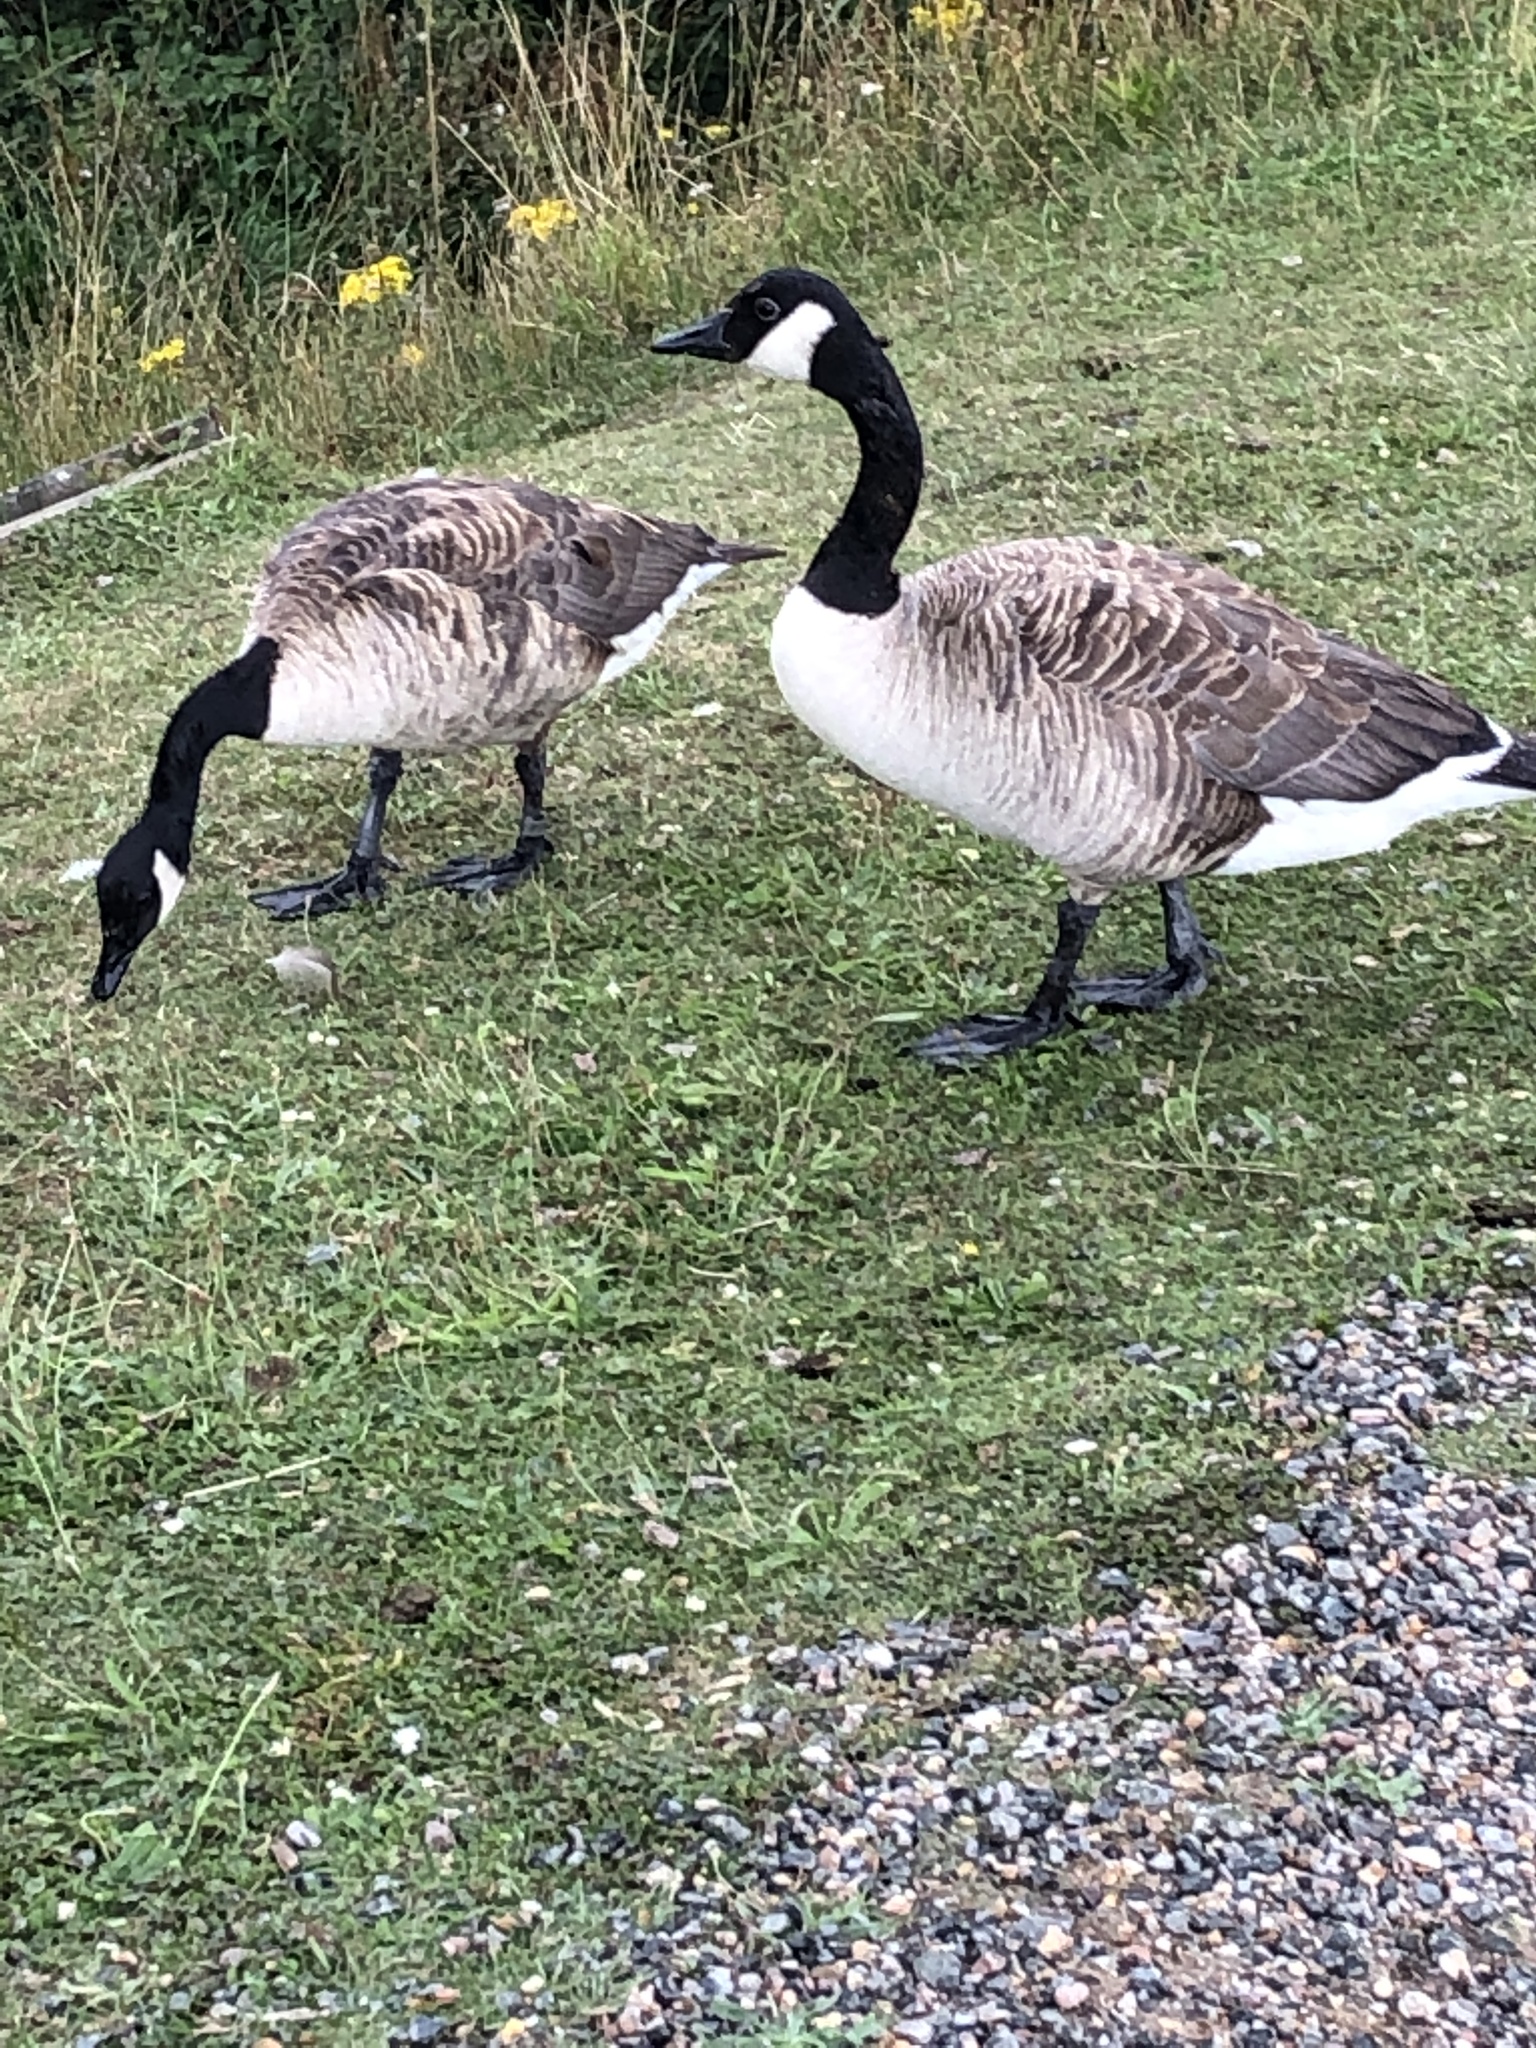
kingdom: Animalia
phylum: Chordata
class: Aves
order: Anseriformes
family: Anatidae
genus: Branta
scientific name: Branta canadensis
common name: Canada goose
